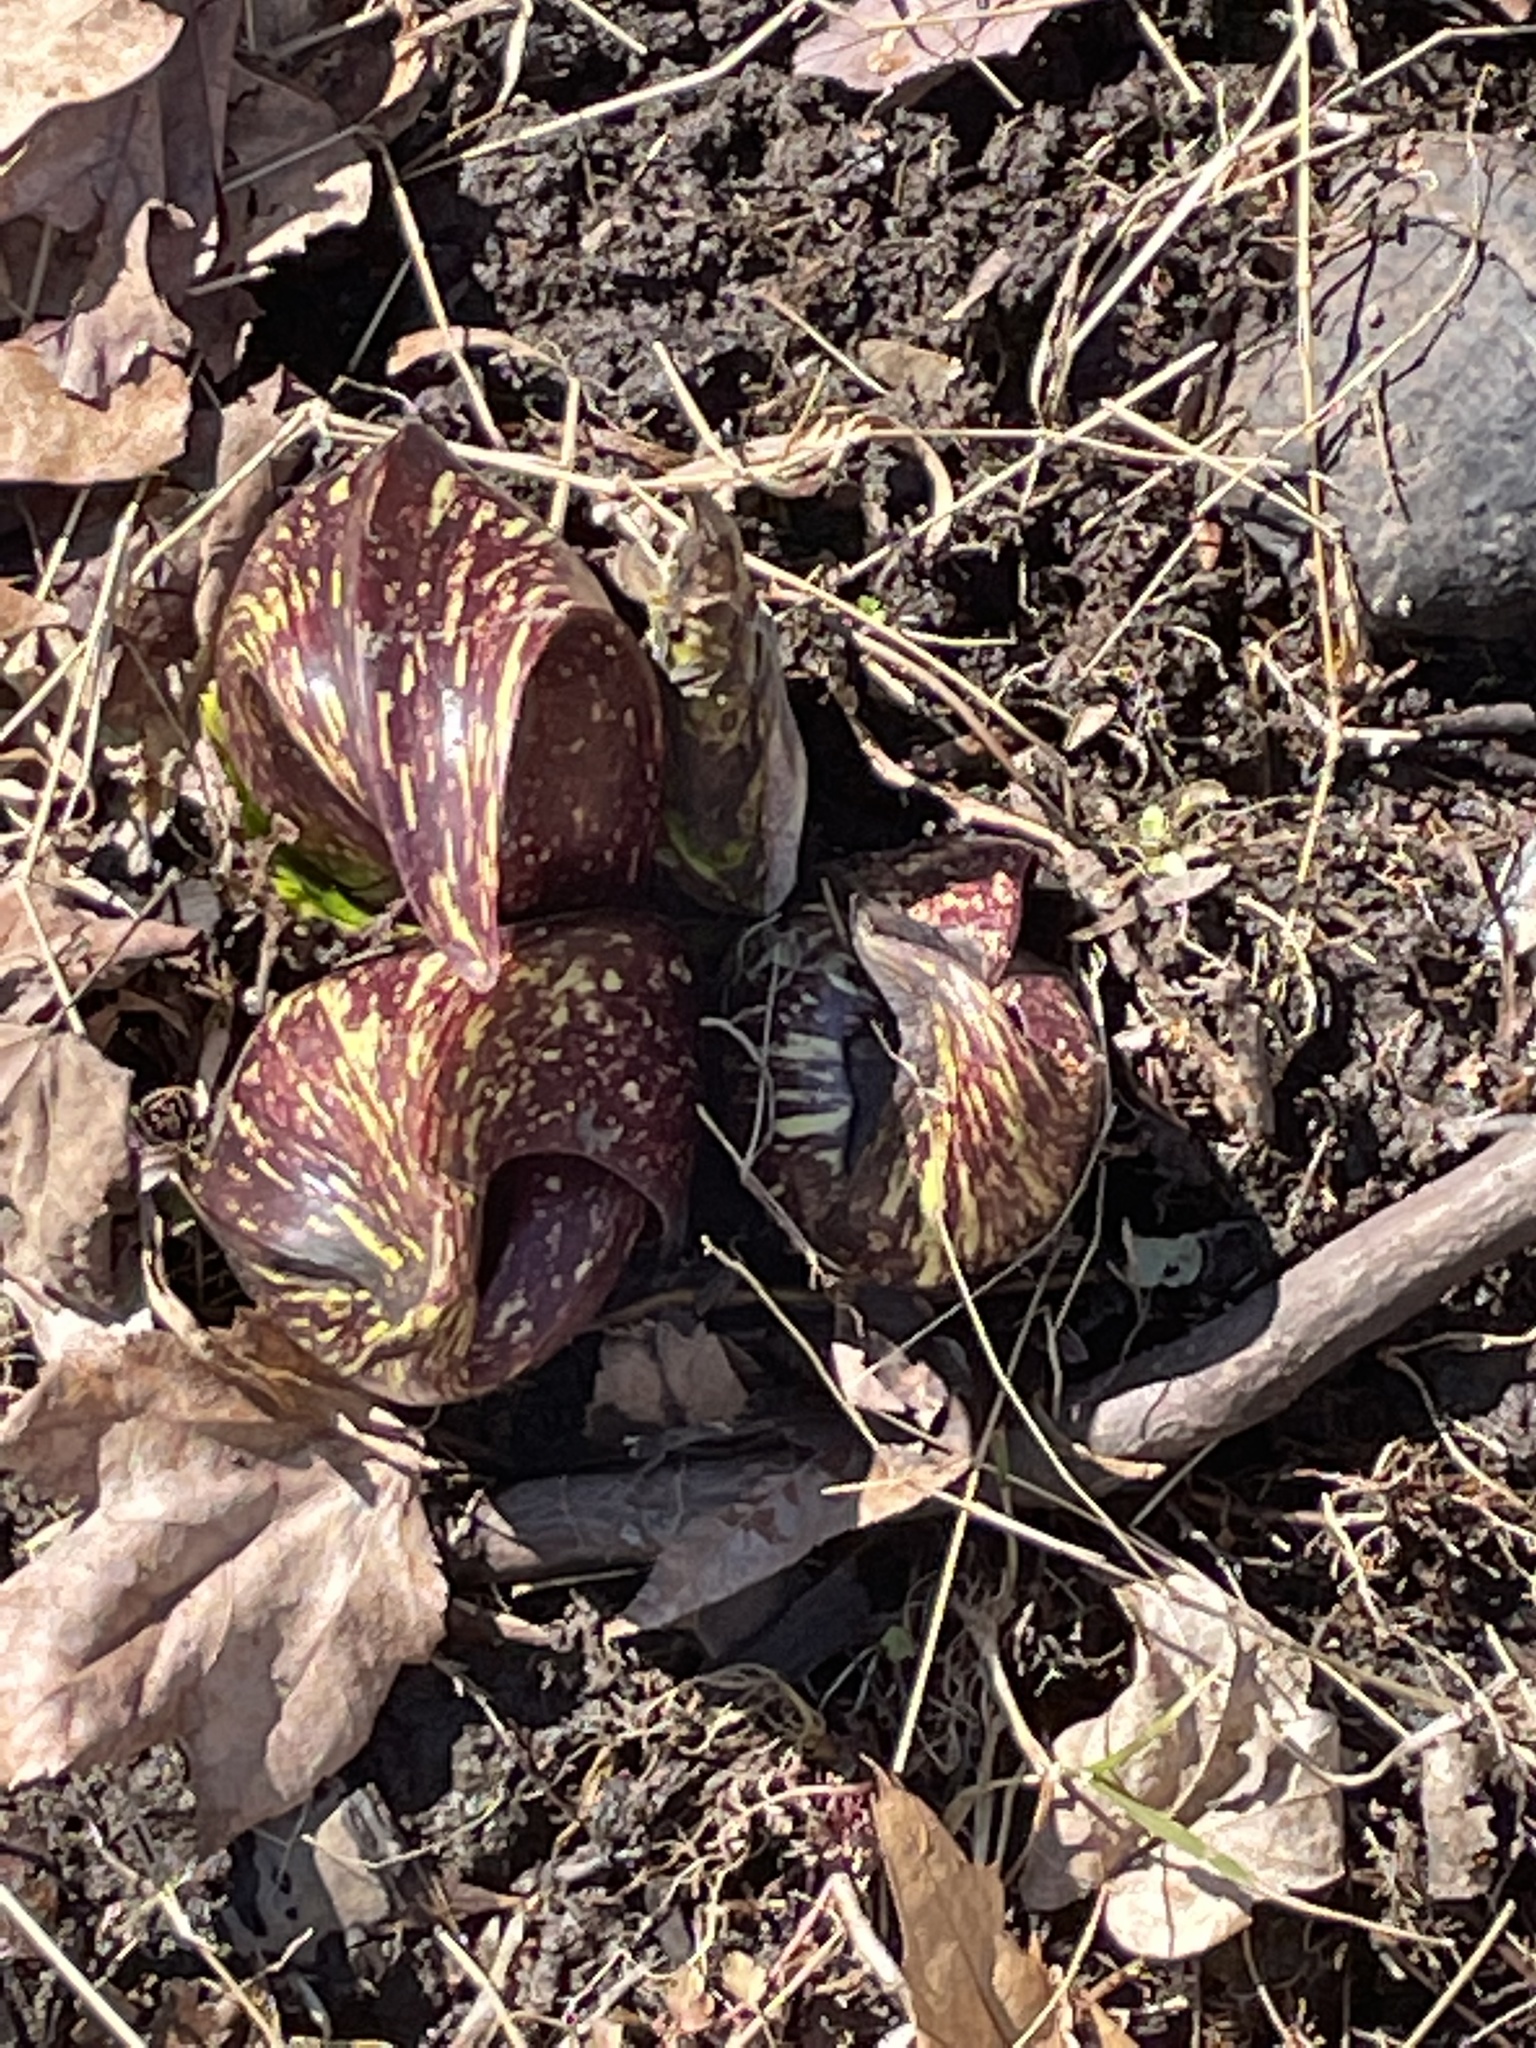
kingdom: Plantae
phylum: Tracheophyta
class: Liliopsida
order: Alismatales
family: Araceae
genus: Symplocarpus
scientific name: Symplocarpus foetidus
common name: Eastern skunk cabbage
